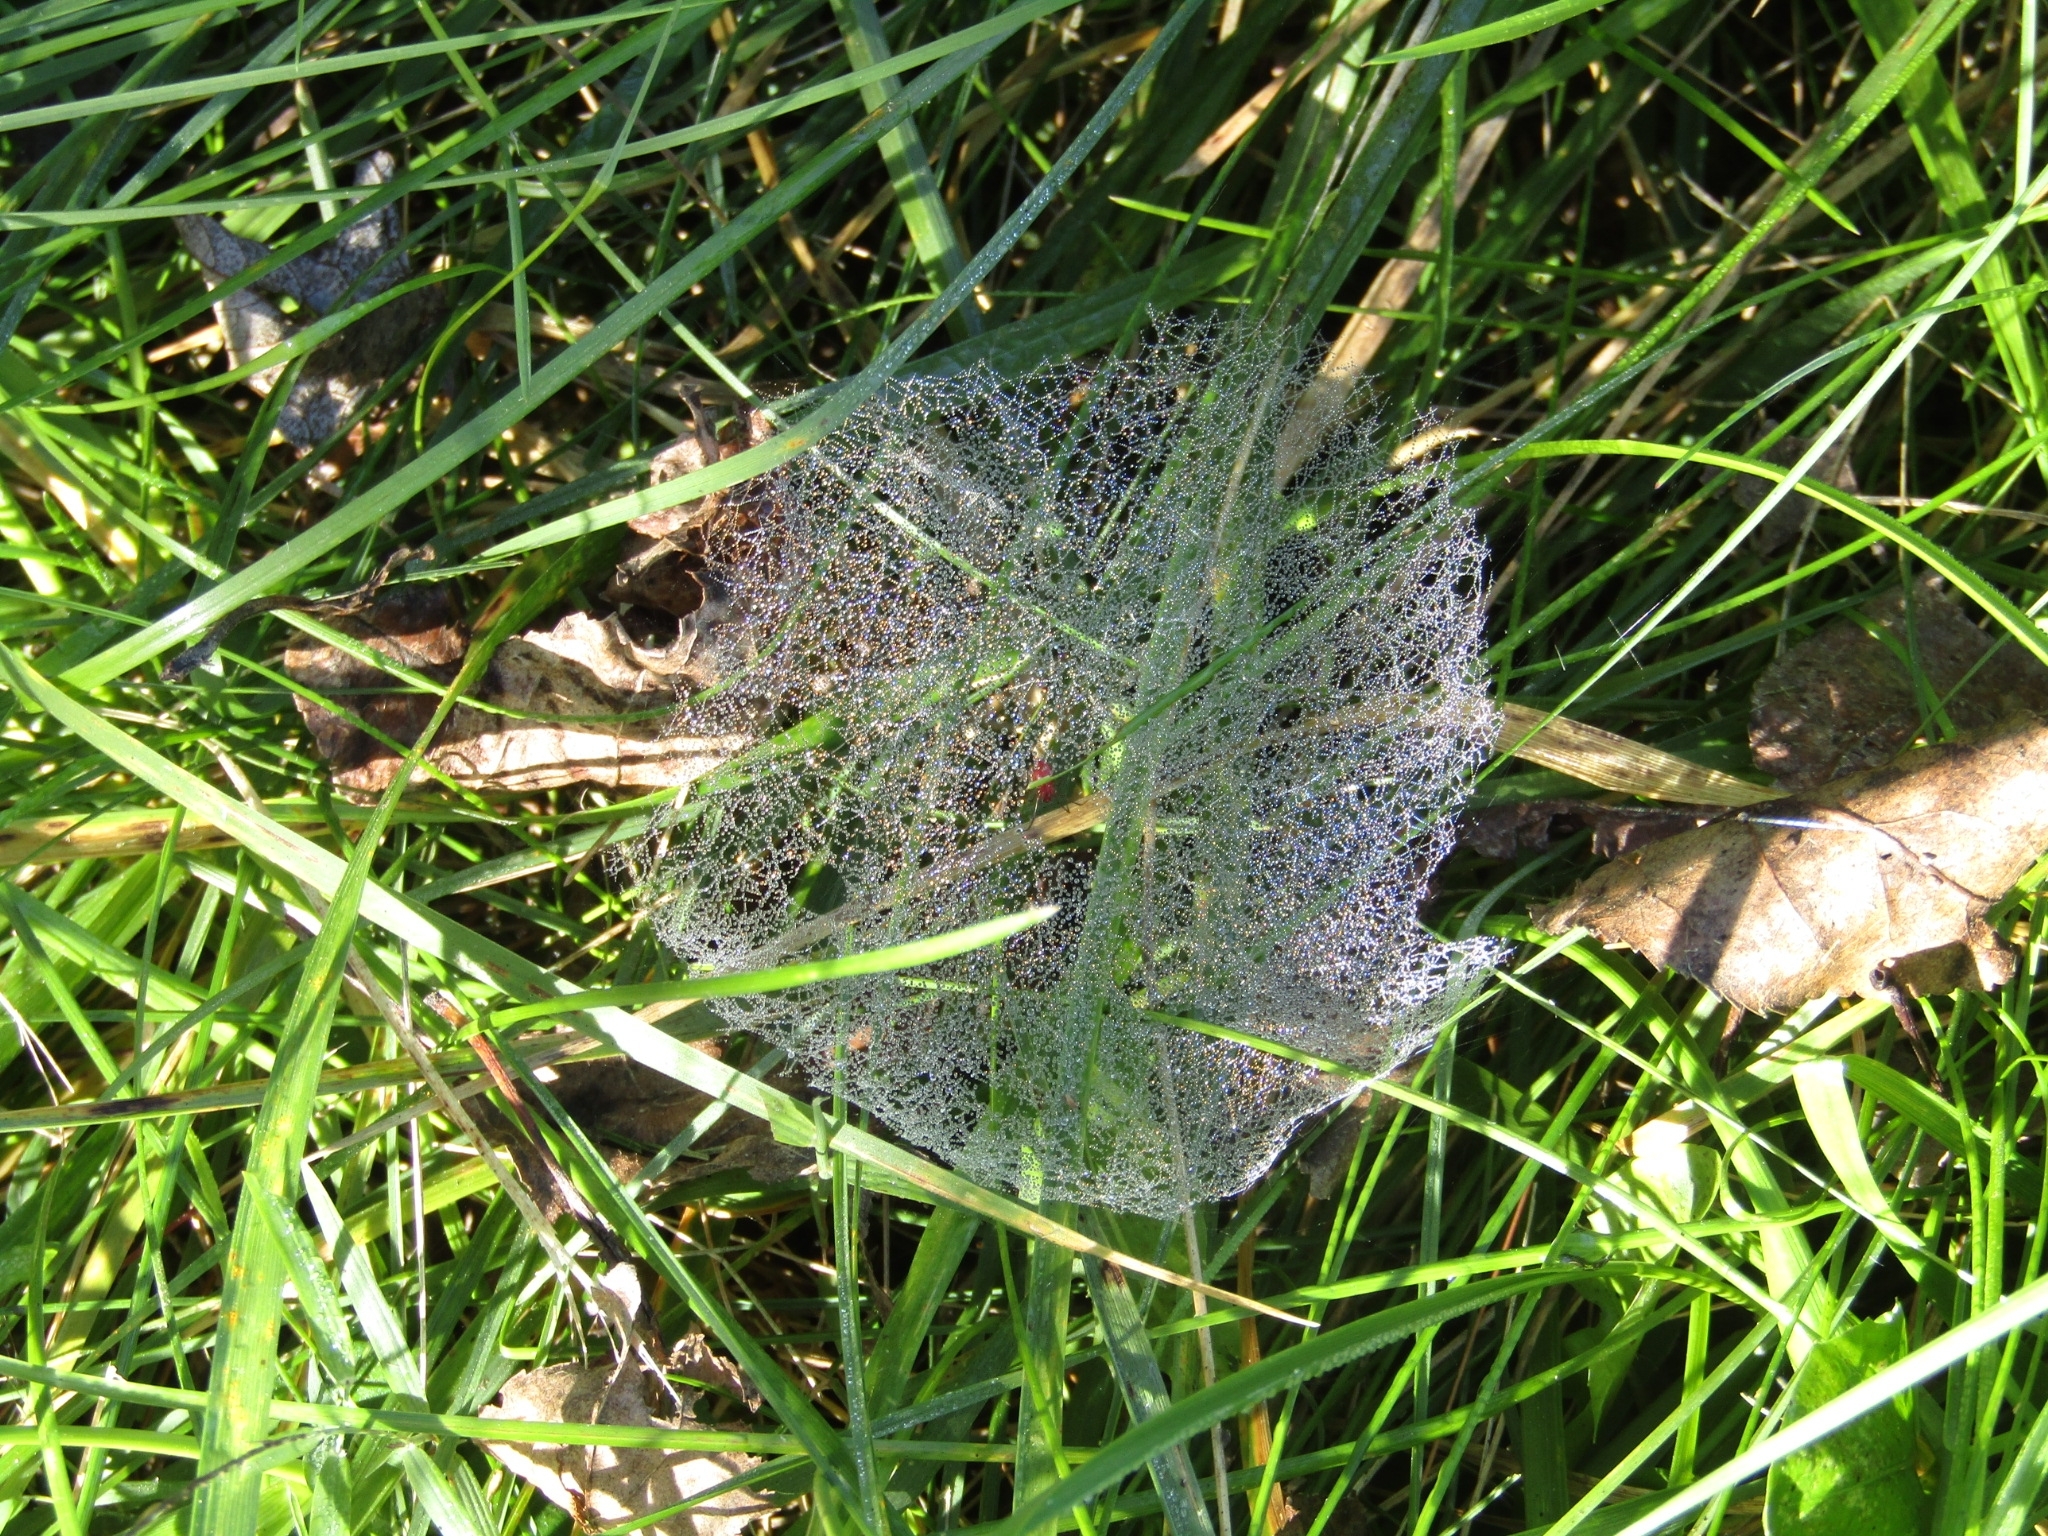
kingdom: Animalia
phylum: Arthropoda
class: Arachnida
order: Araneae
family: Linyphiidae
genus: Florinda
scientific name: Florinda coccinea
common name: Black-tailed red sheetweaver
